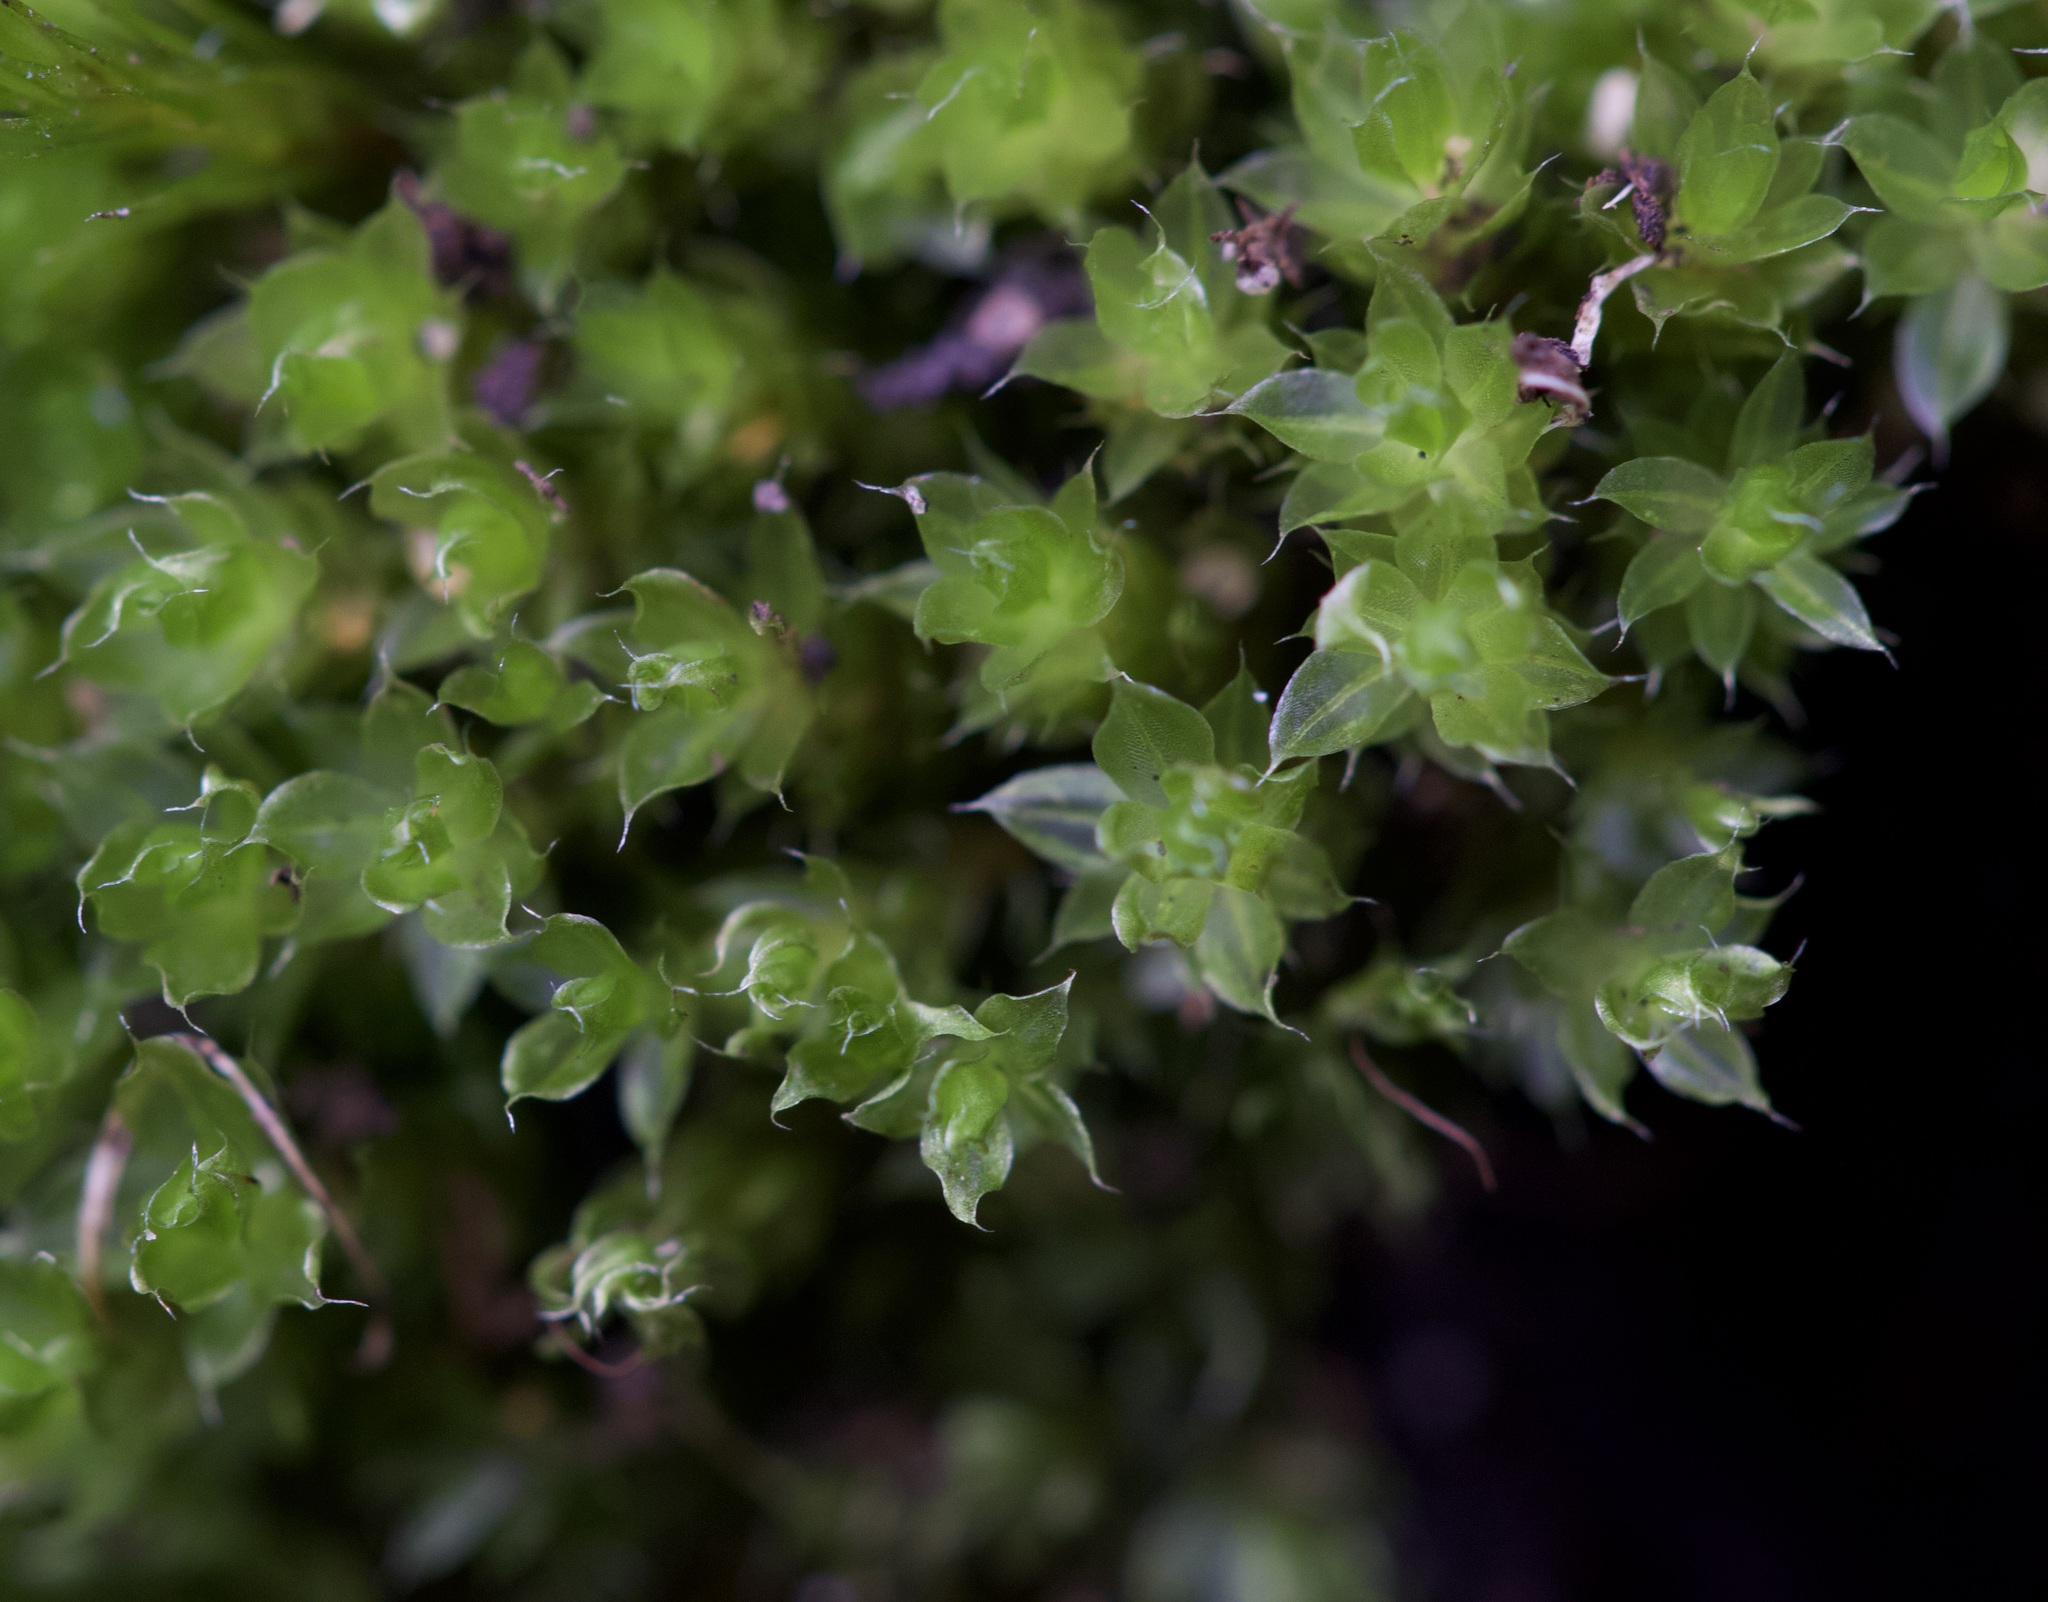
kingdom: Plantae
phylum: Bryophyta
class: Bryopsida
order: Bryales
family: Bryaceae
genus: Rosulabryum
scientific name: Rosulabryum capillare
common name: Capillary thread-moss
